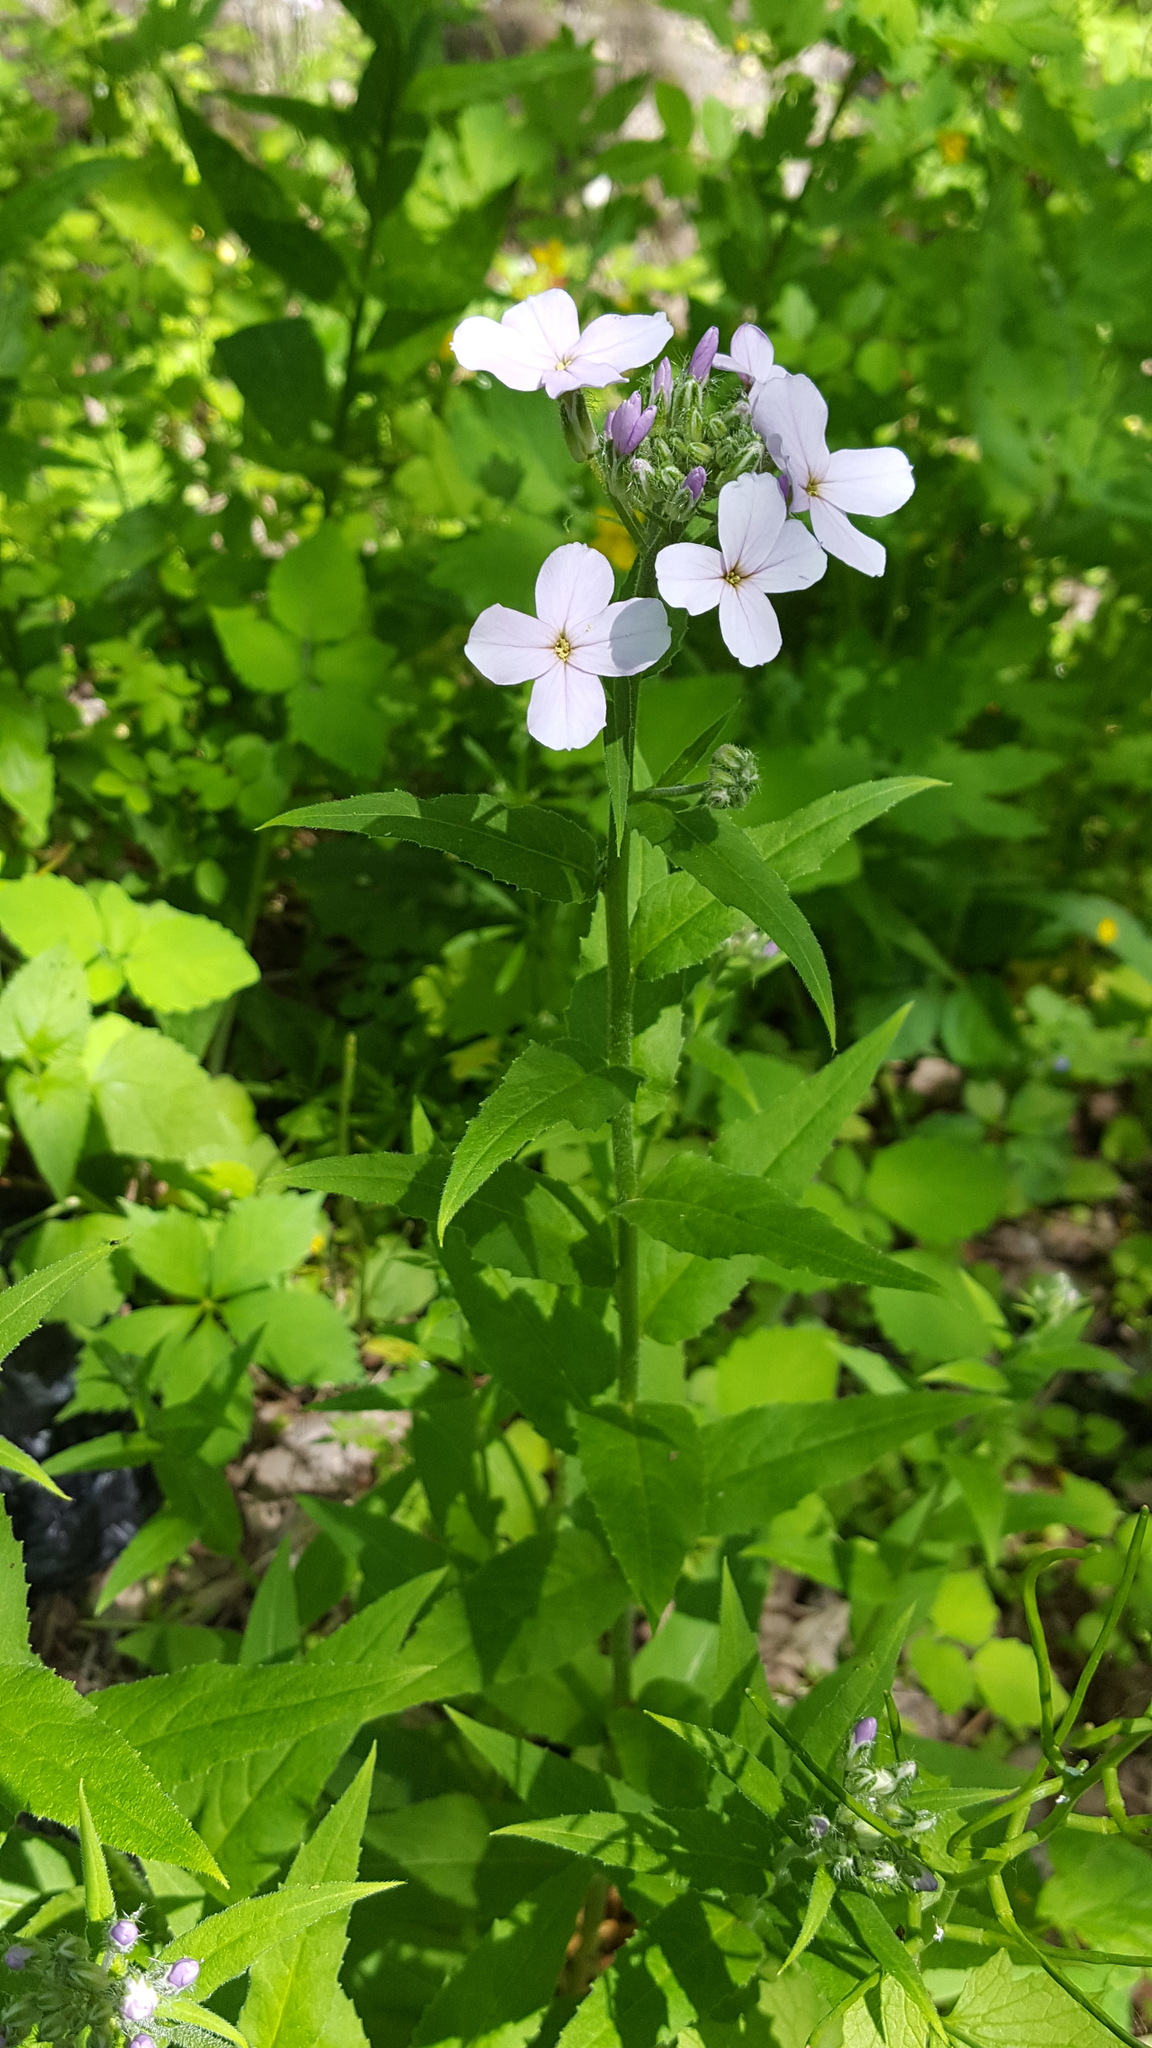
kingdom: Plantae
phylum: Tracheophyta
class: Magnoliopsida
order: Brassicales
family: Brassicaceae
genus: Hesperis
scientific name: Hesperis matronalis
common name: Dame's-violet
